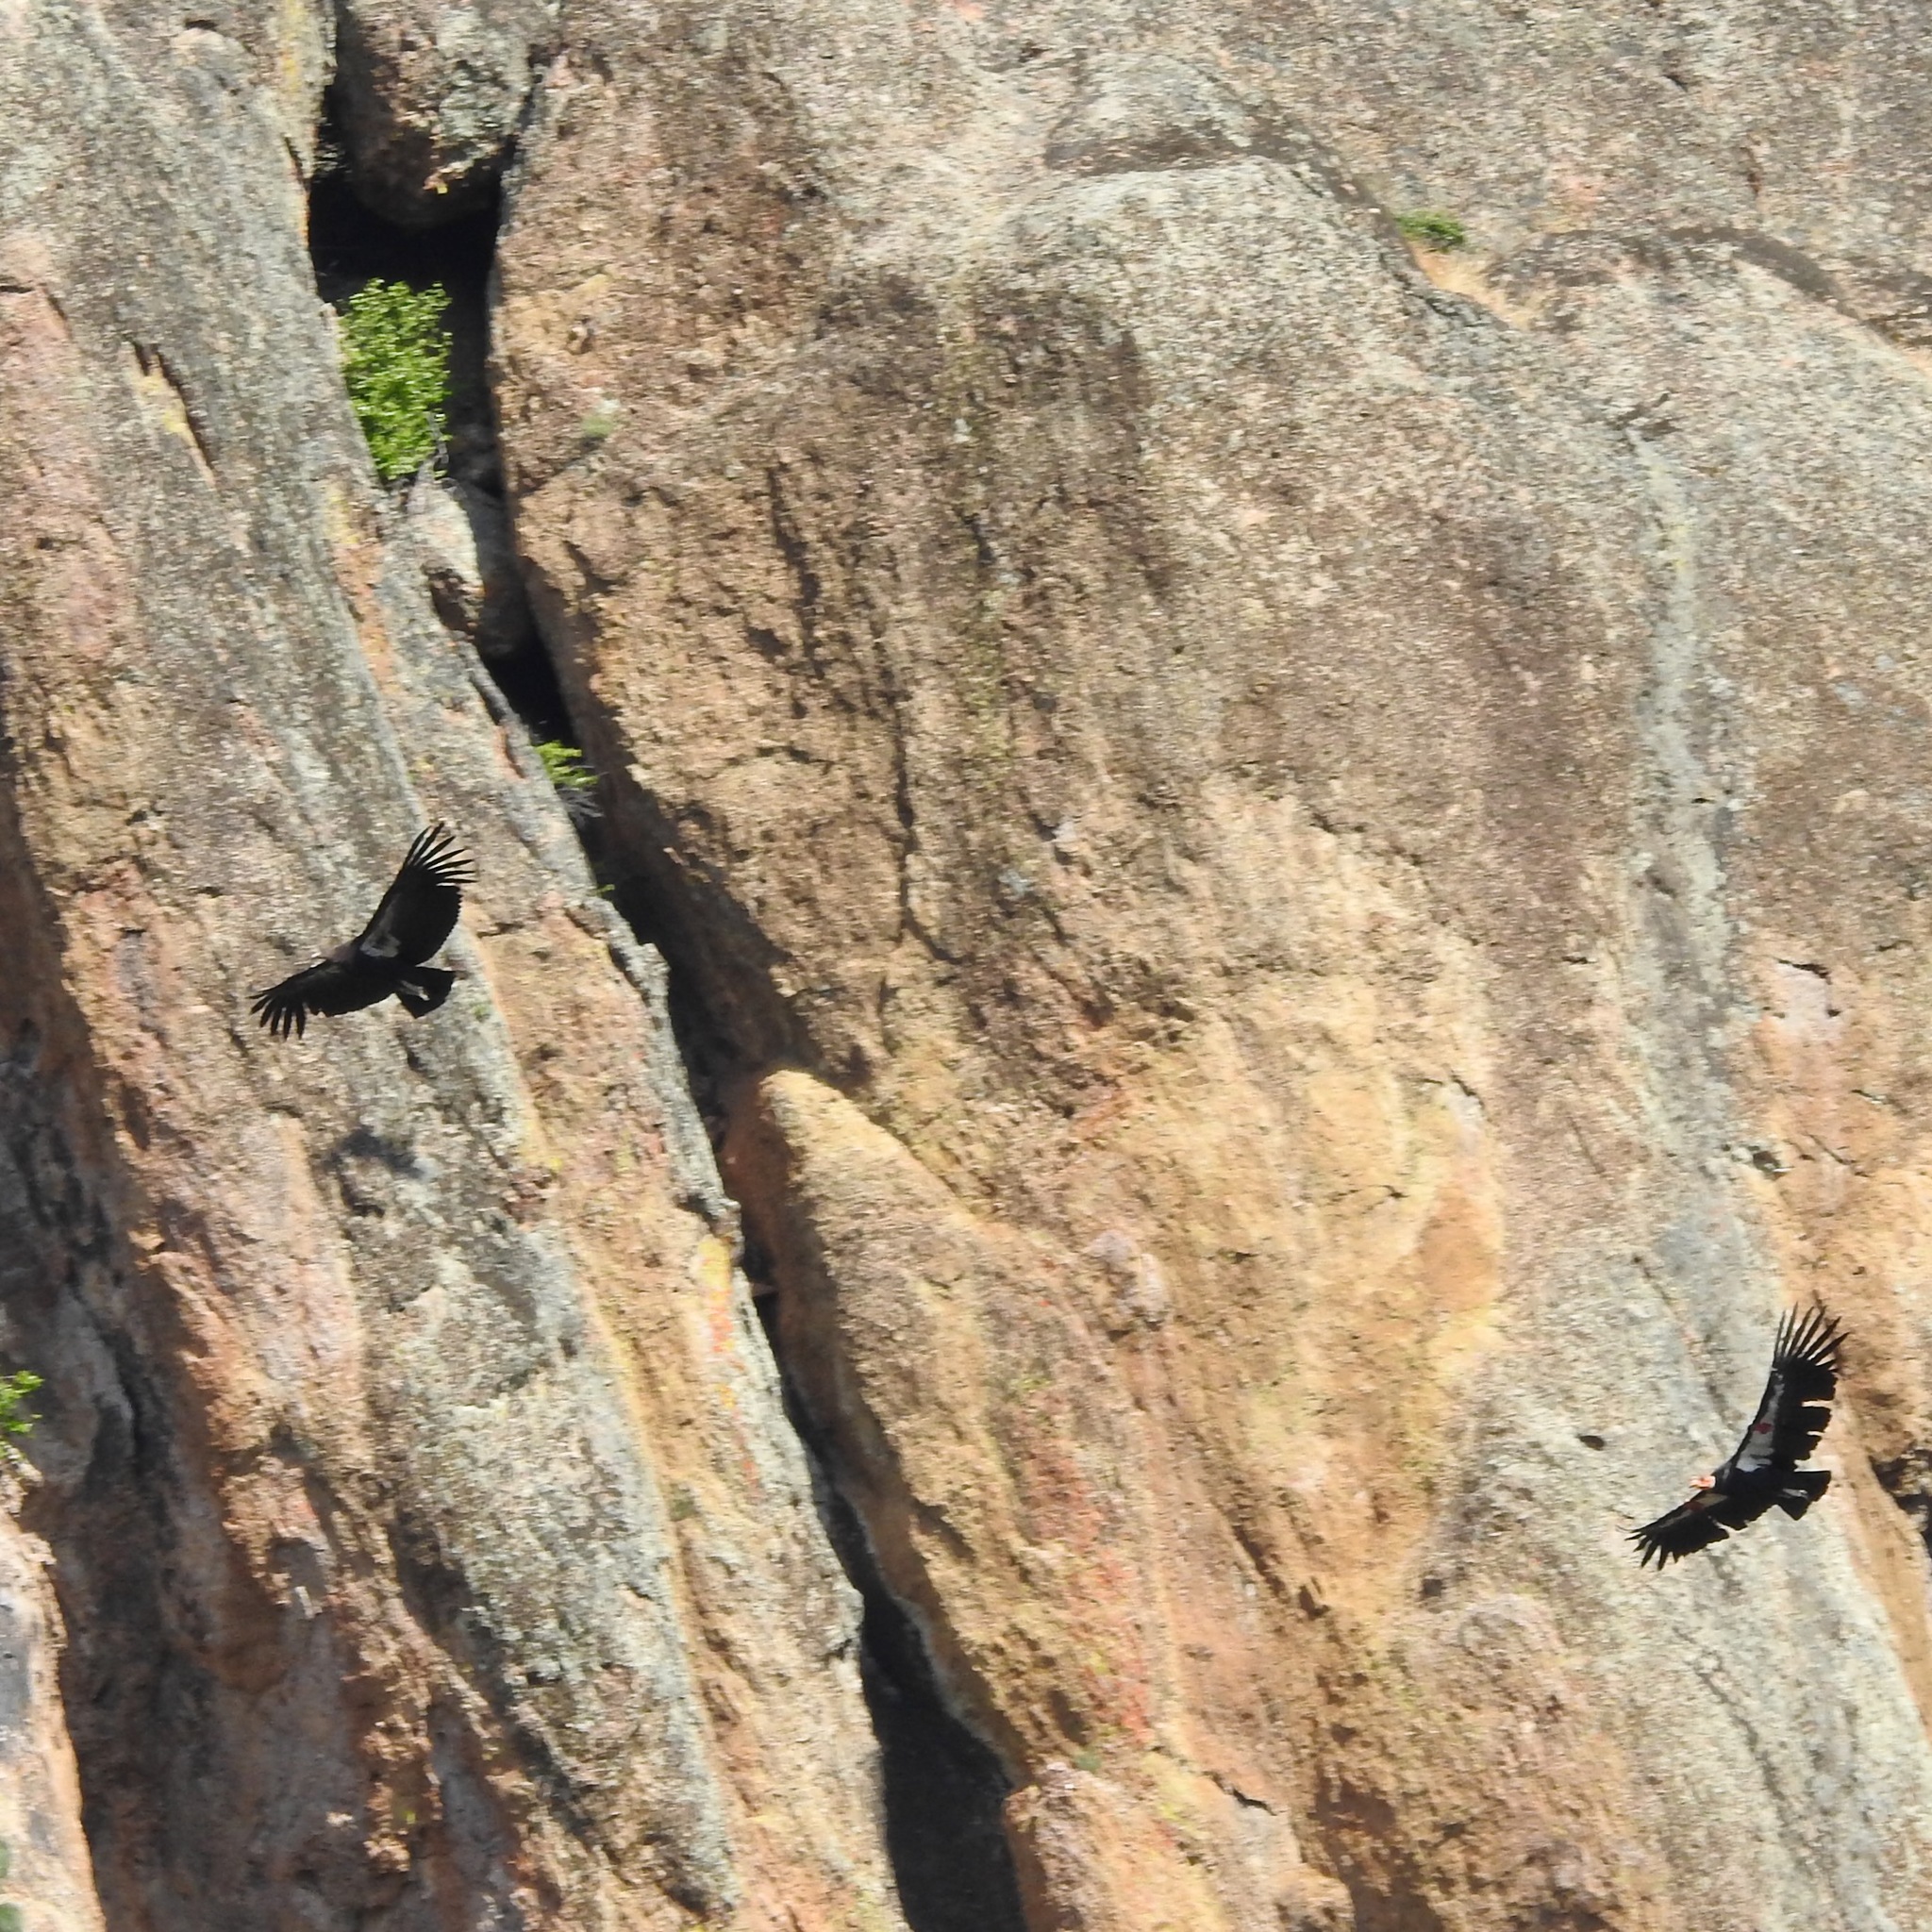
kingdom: Animalia
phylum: Chordata
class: Aves
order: Accipitriformes
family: Cathartidae
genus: Cathartes
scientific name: Cathartes aura
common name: Turkey vulture
